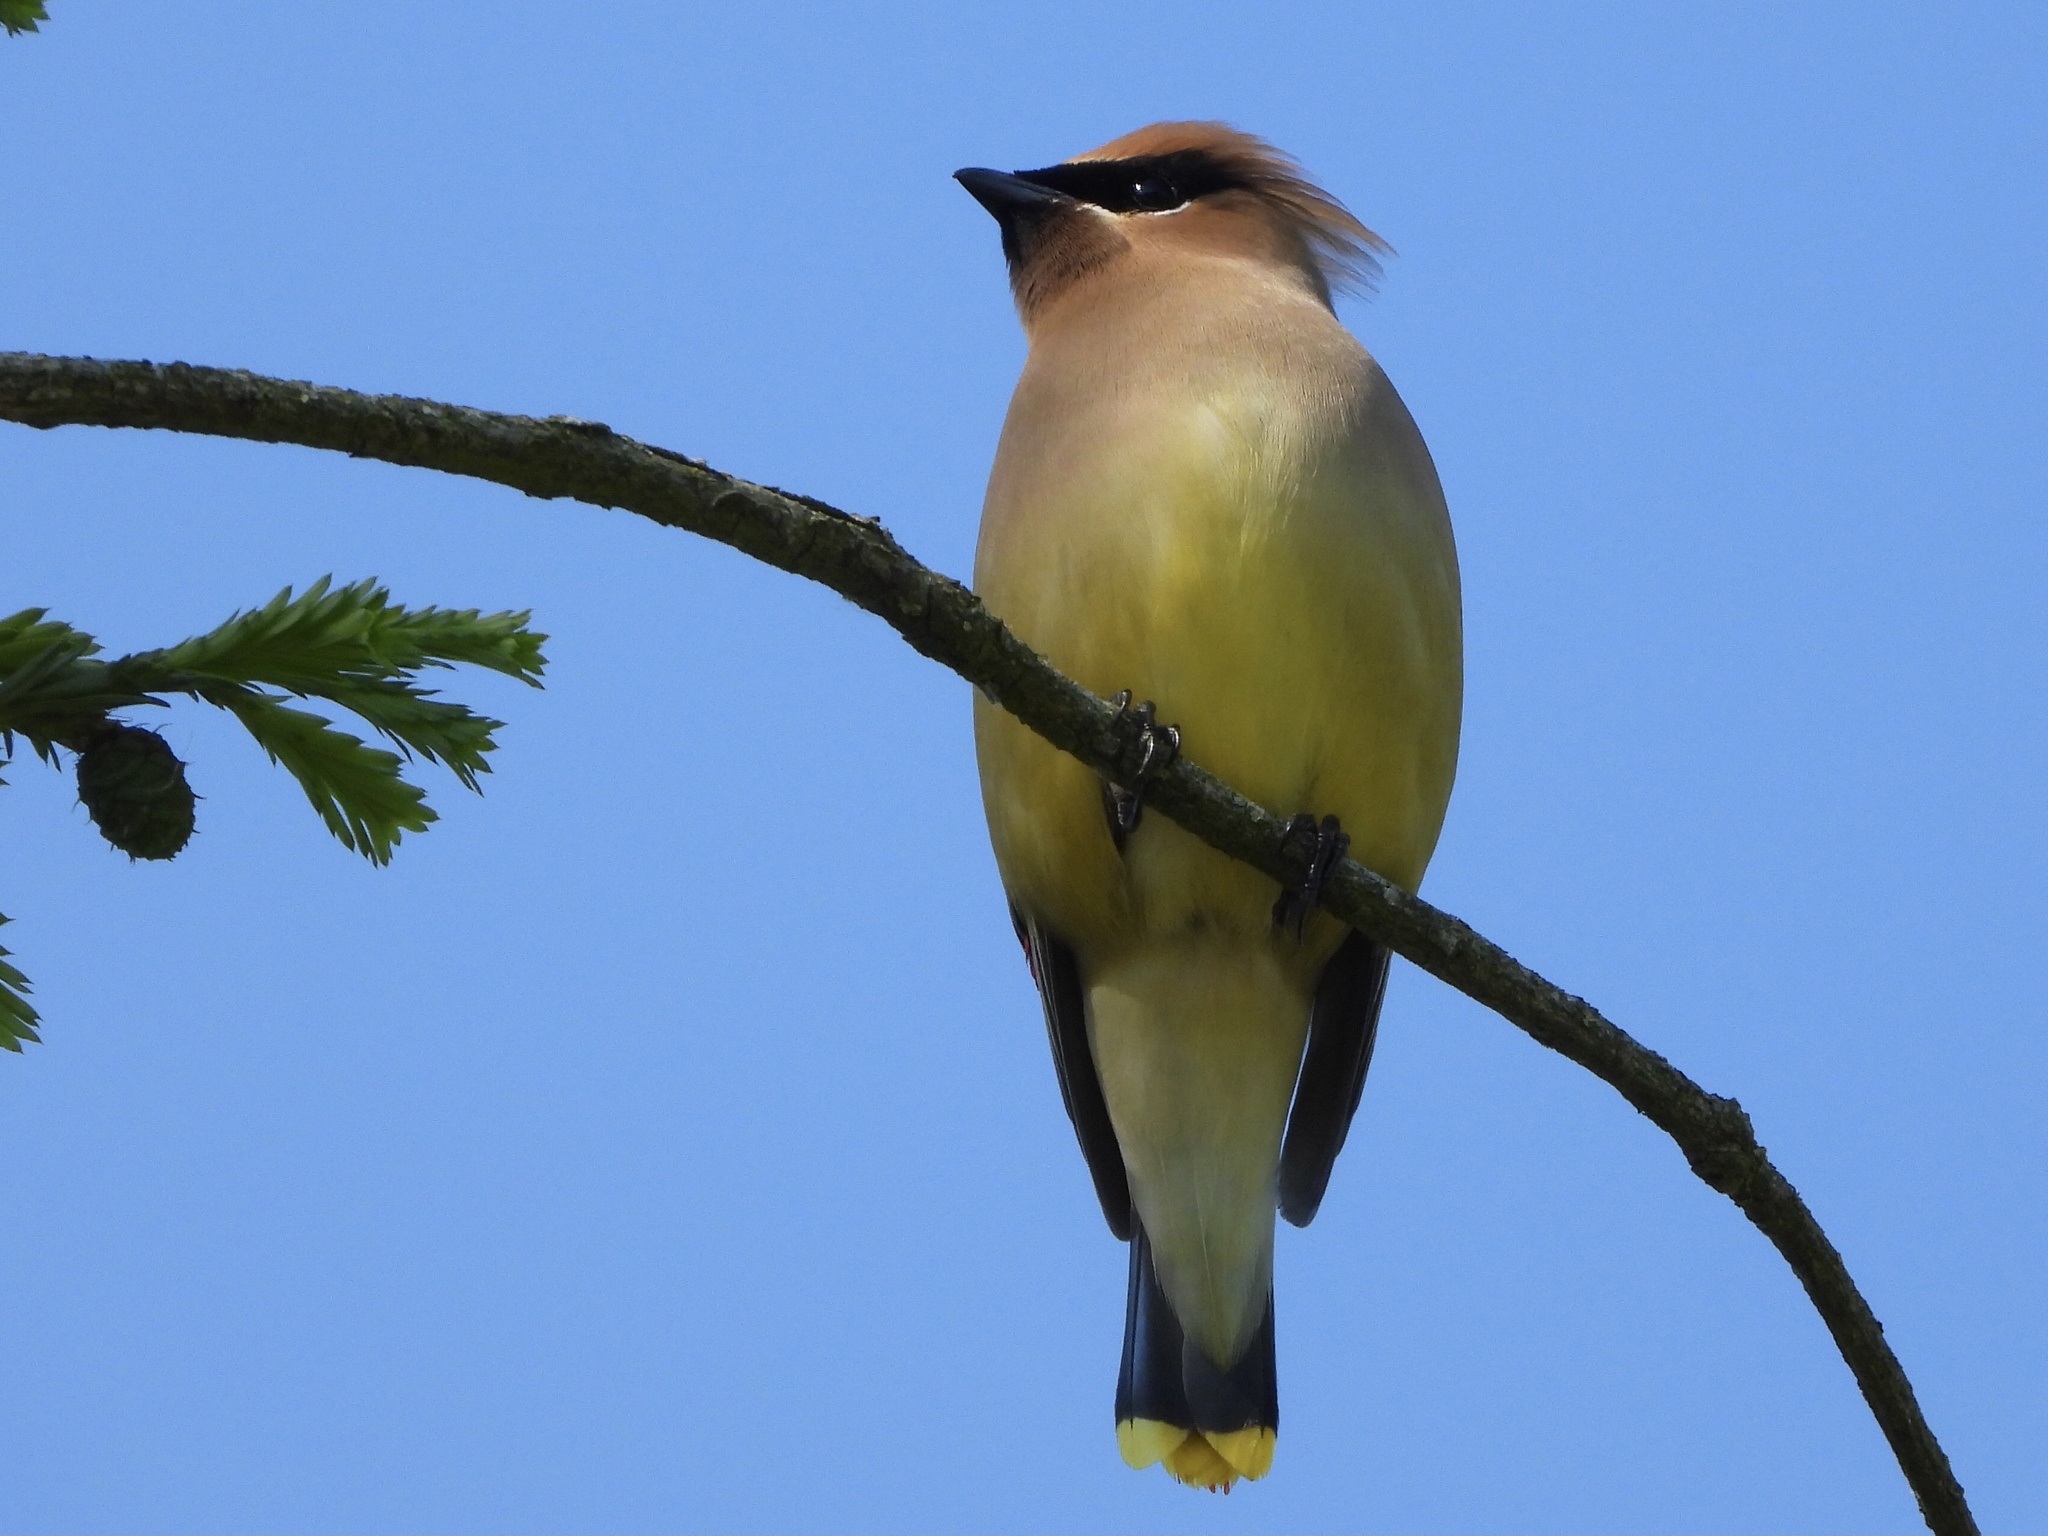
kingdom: Animalia
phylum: Chordata
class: Aves
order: Passeriformes
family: Bombycillidae
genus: Bombycilla
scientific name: Bombycilla cedrorum
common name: Cedar waxwing
